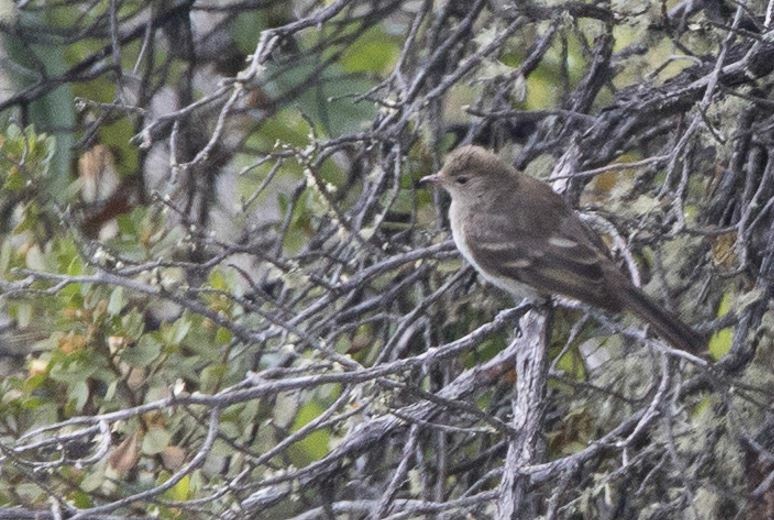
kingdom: Animalia
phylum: Chordata
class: Aves
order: Passeriformes
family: Tyrannidae
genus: Elaenia
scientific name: Elaenia albiceps
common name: White-crested elaenia
